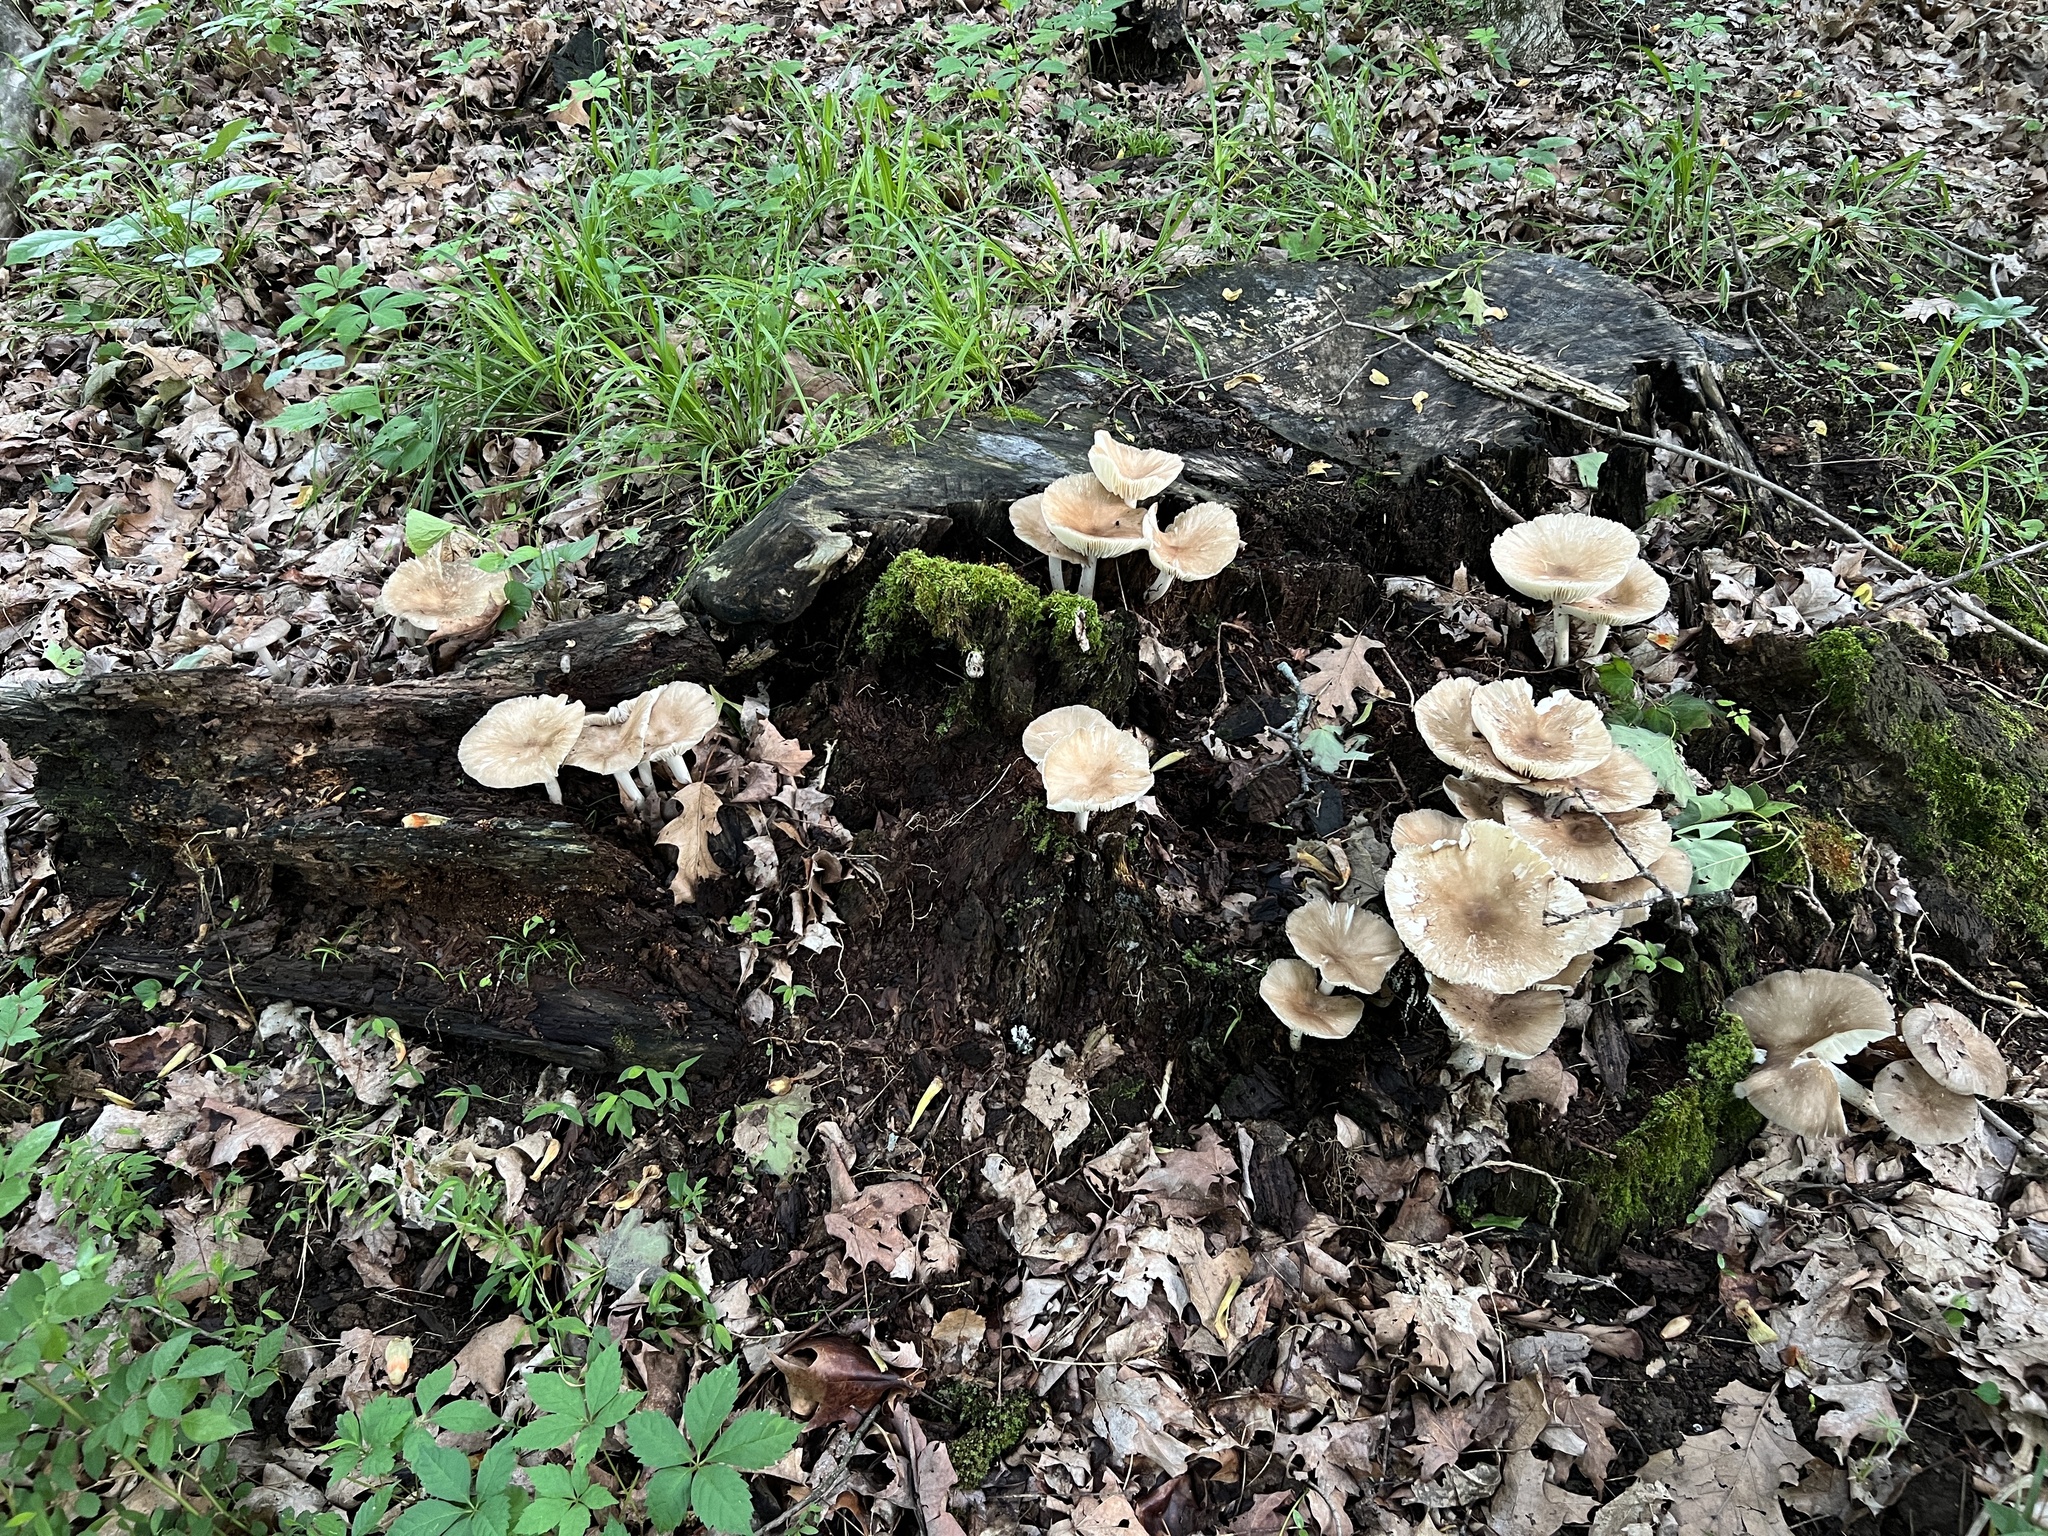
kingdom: Fungi
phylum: Basidiomycota
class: Agaricomycetes
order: Agaricales
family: Tricholomataceae
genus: Megacollybia
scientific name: Megacollybia rodmanii
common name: Eastern american platterful mushroom
